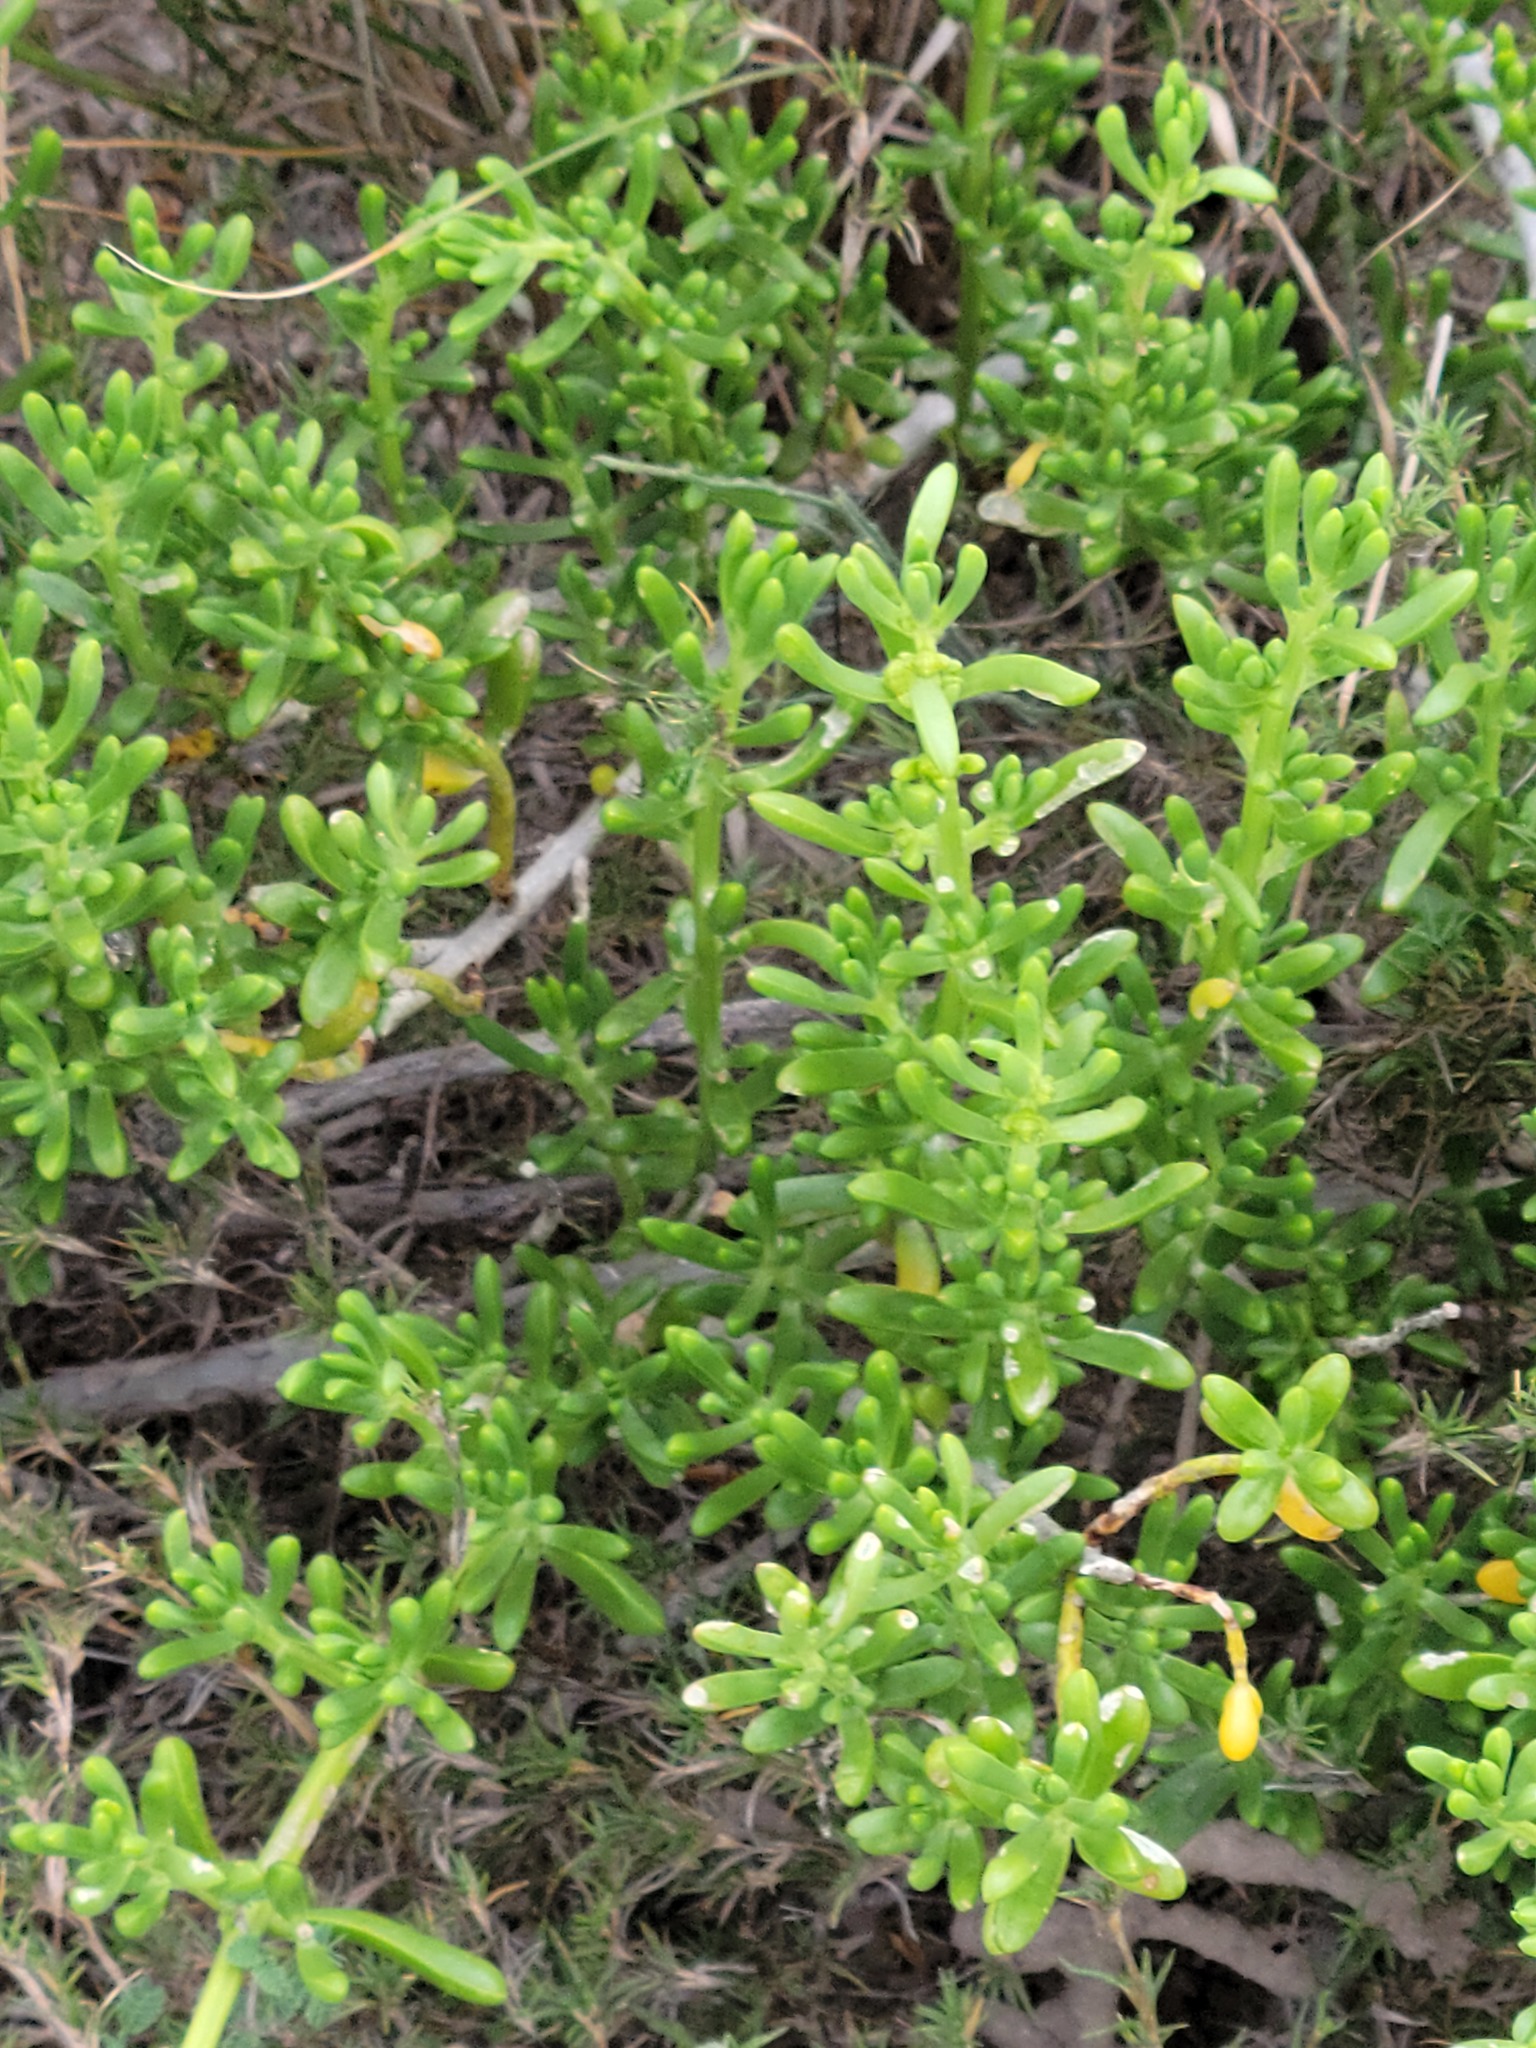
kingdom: Plantae
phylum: Tracheophyta
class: Magnoliopsida
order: Brassicales
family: Bataceae
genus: Batis
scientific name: Batis maritima
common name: Turtleweed
